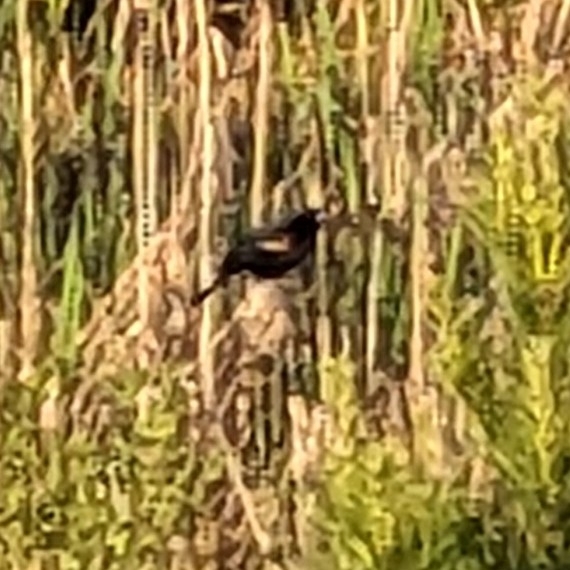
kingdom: Animalia
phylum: Chordata
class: Aves
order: Passeriformes
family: Icteridae
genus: Agelaius
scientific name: Agelaius phoeniceus
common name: Red-winged blackbird
